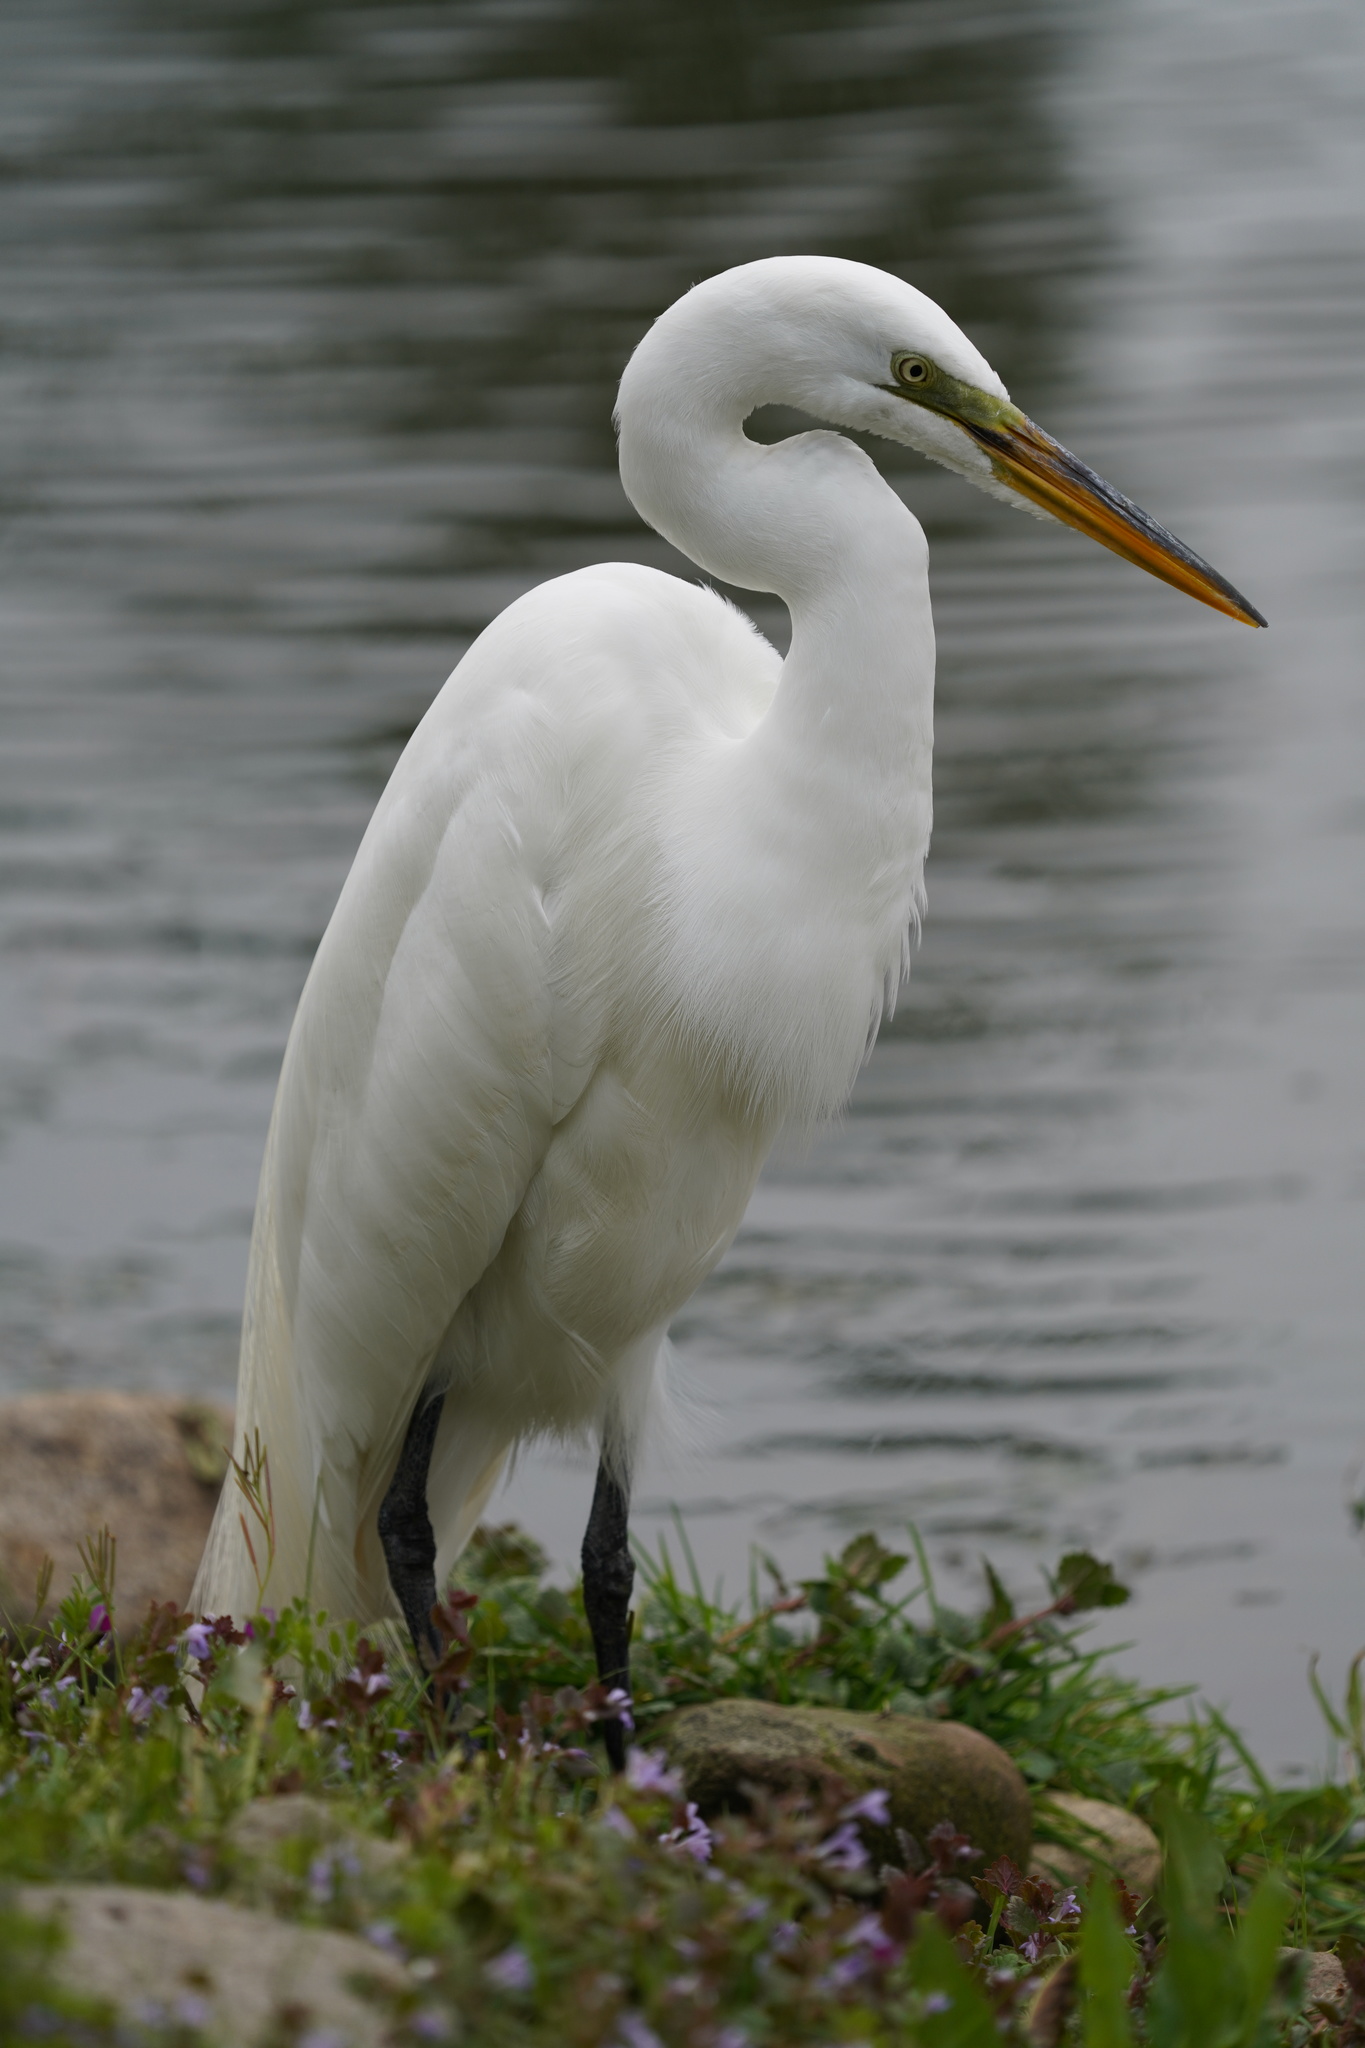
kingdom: Animalia
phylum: Chordata
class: Aves
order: Pelecaniformes
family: Ardeidae
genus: Ardea
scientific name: Ardea alba
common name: Great egret
